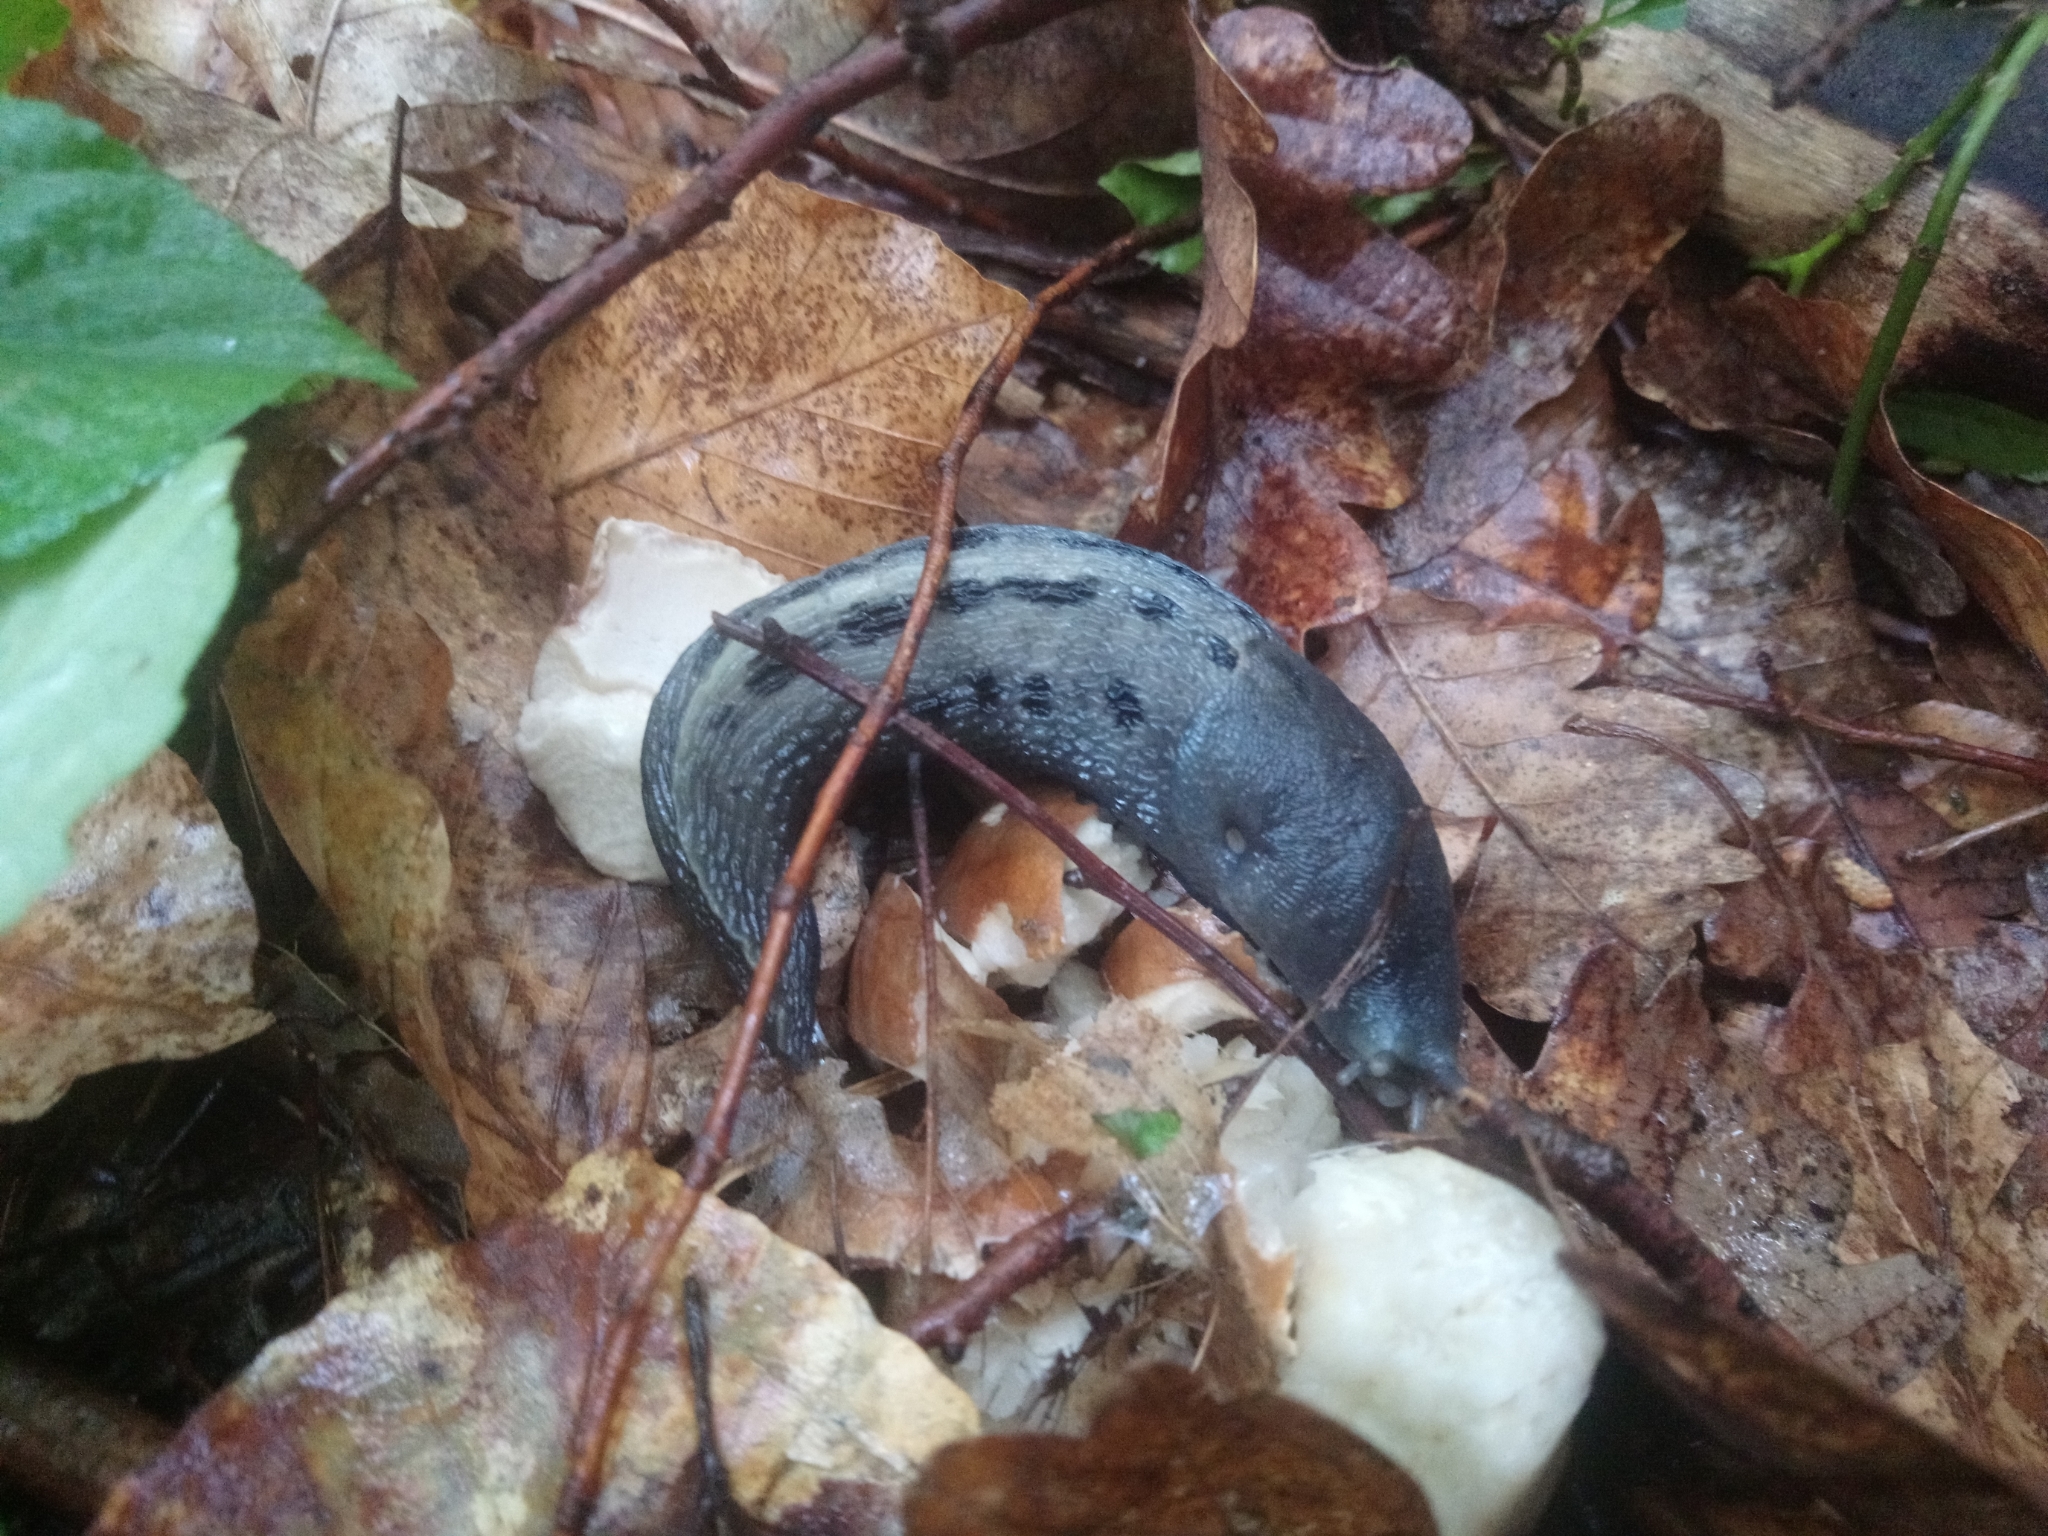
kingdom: Animalia
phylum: Mollusca
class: Gastropoda
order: Stylommatophora
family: Limacidae
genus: Limax
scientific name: Limax cinereoniger
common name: Ash-black slug
